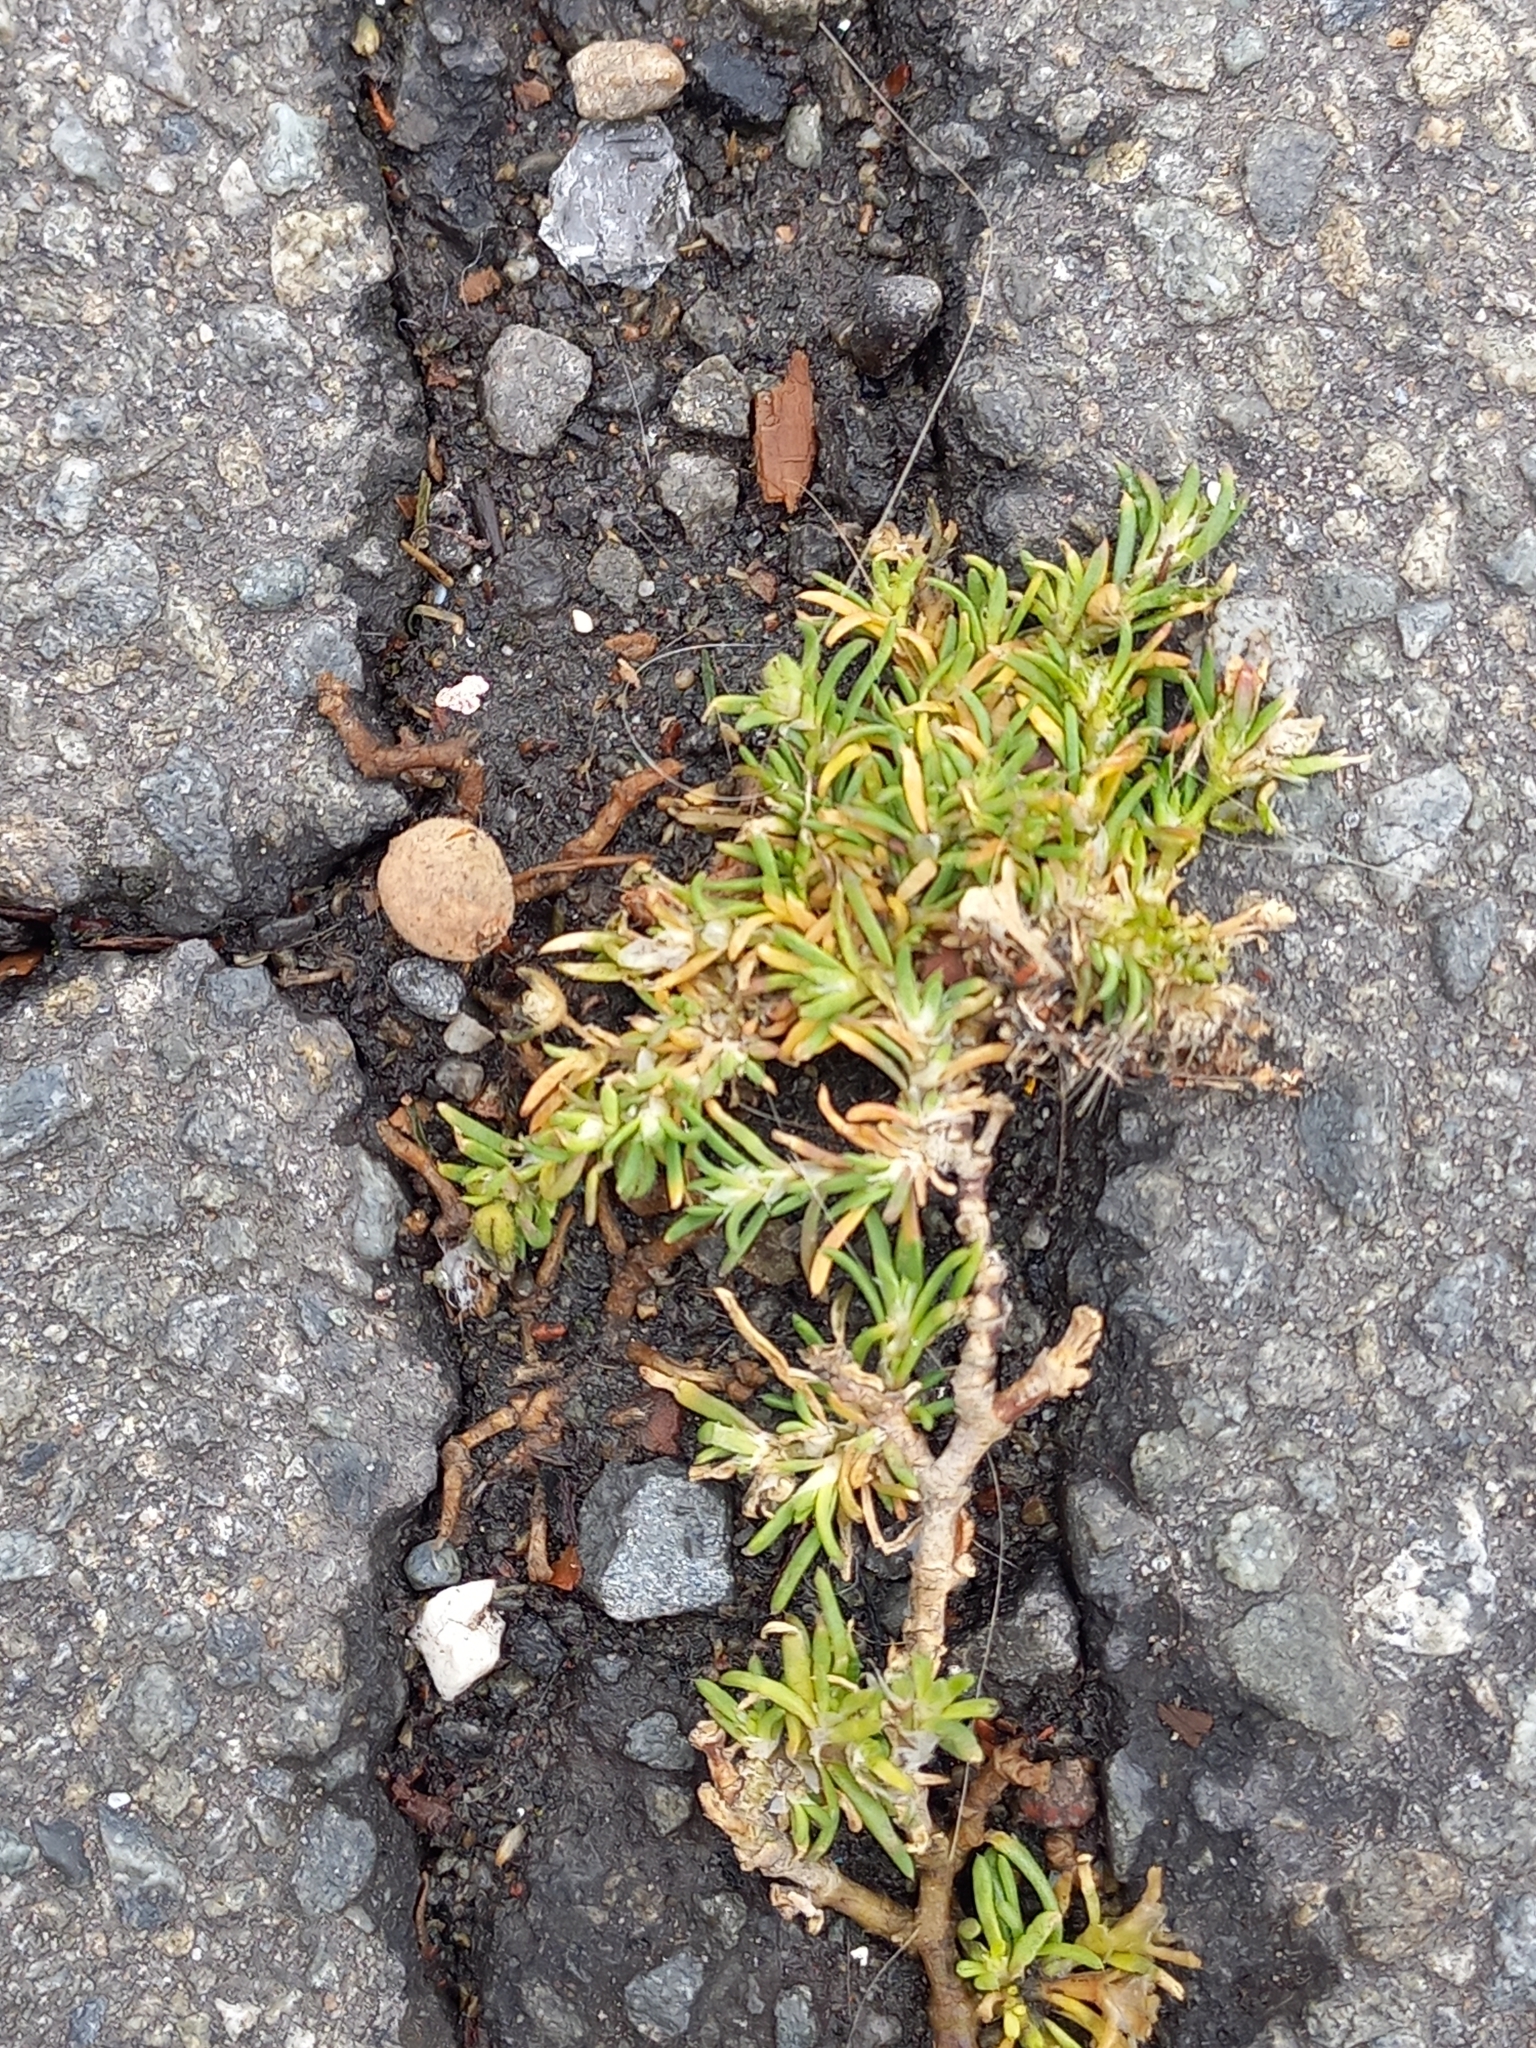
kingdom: Plantae
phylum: Tracheophyta
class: Magnoliopsida
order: Caryophyllales
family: Caryophyllaceae
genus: Sagina
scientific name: Sagina procumbens
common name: Procumbent pearlwort
